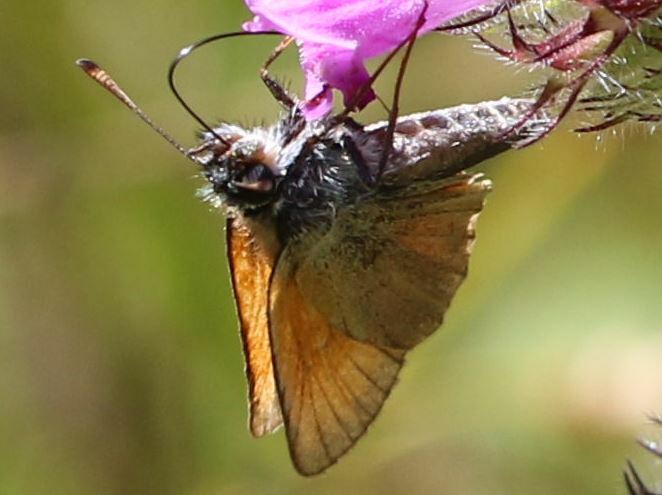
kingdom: Animalia
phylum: Arthropoda
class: Insecta
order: Lepidoptera
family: Hesperiidae
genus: Thymelicus
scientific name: Thymelicus lineola
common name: Essex skipper
